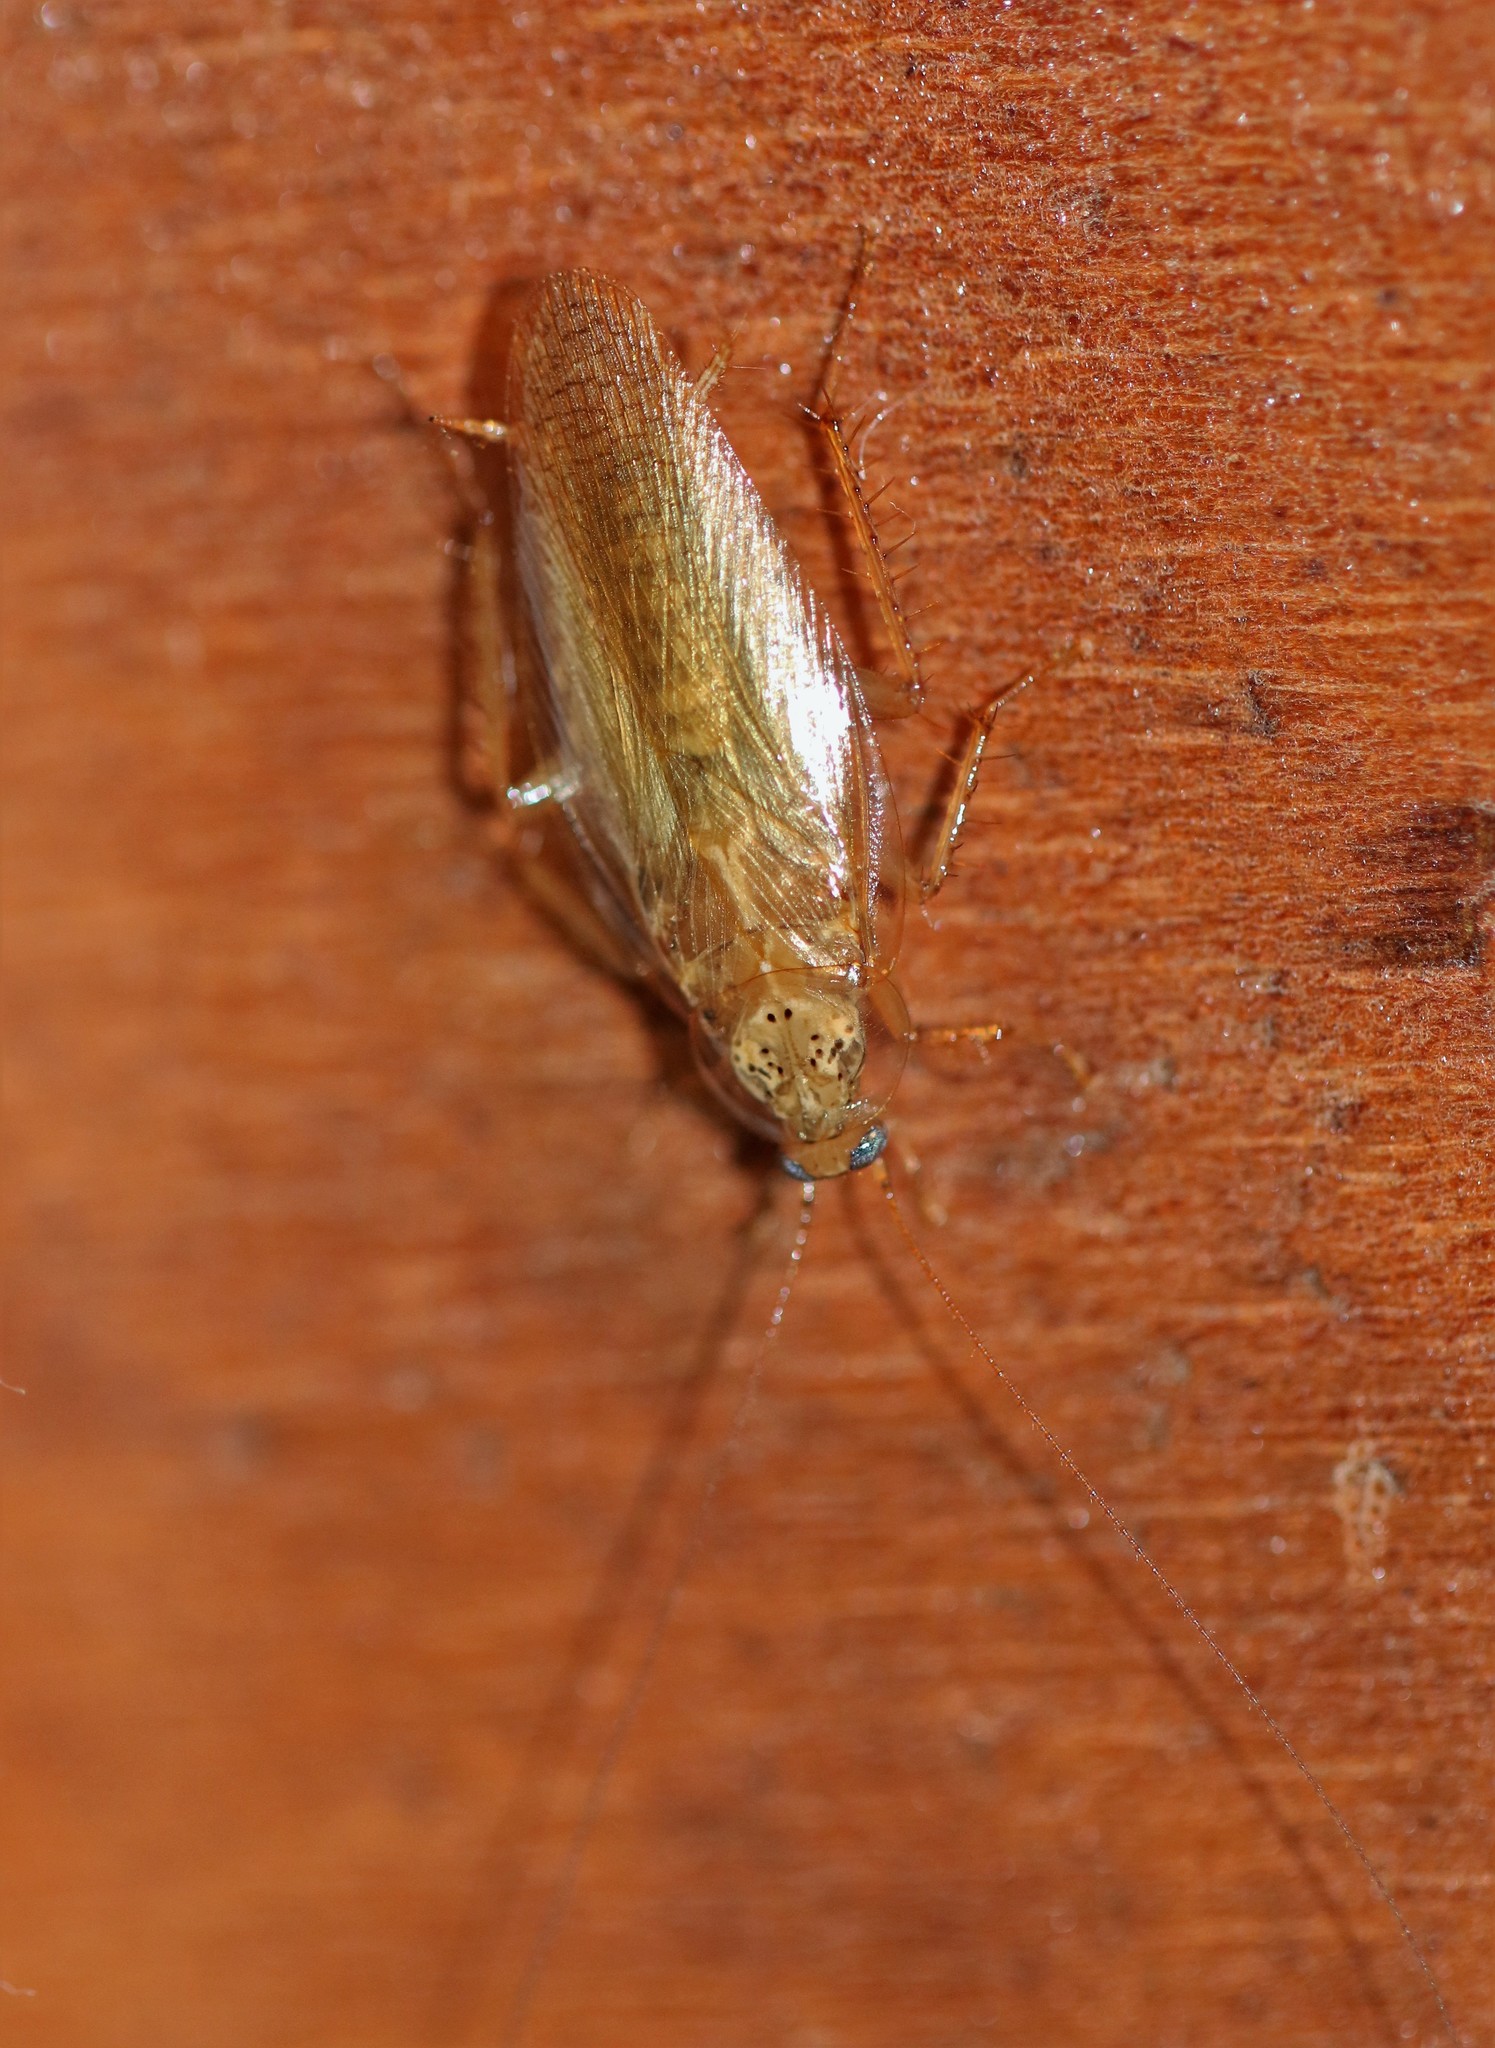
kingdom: Animalia
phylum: Arthropoda
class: Insecta
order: Blattodea
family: Ectobiidae
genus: Latiblattella
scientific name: Latiblattella lucifrons
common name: Pale-headed cockroach
